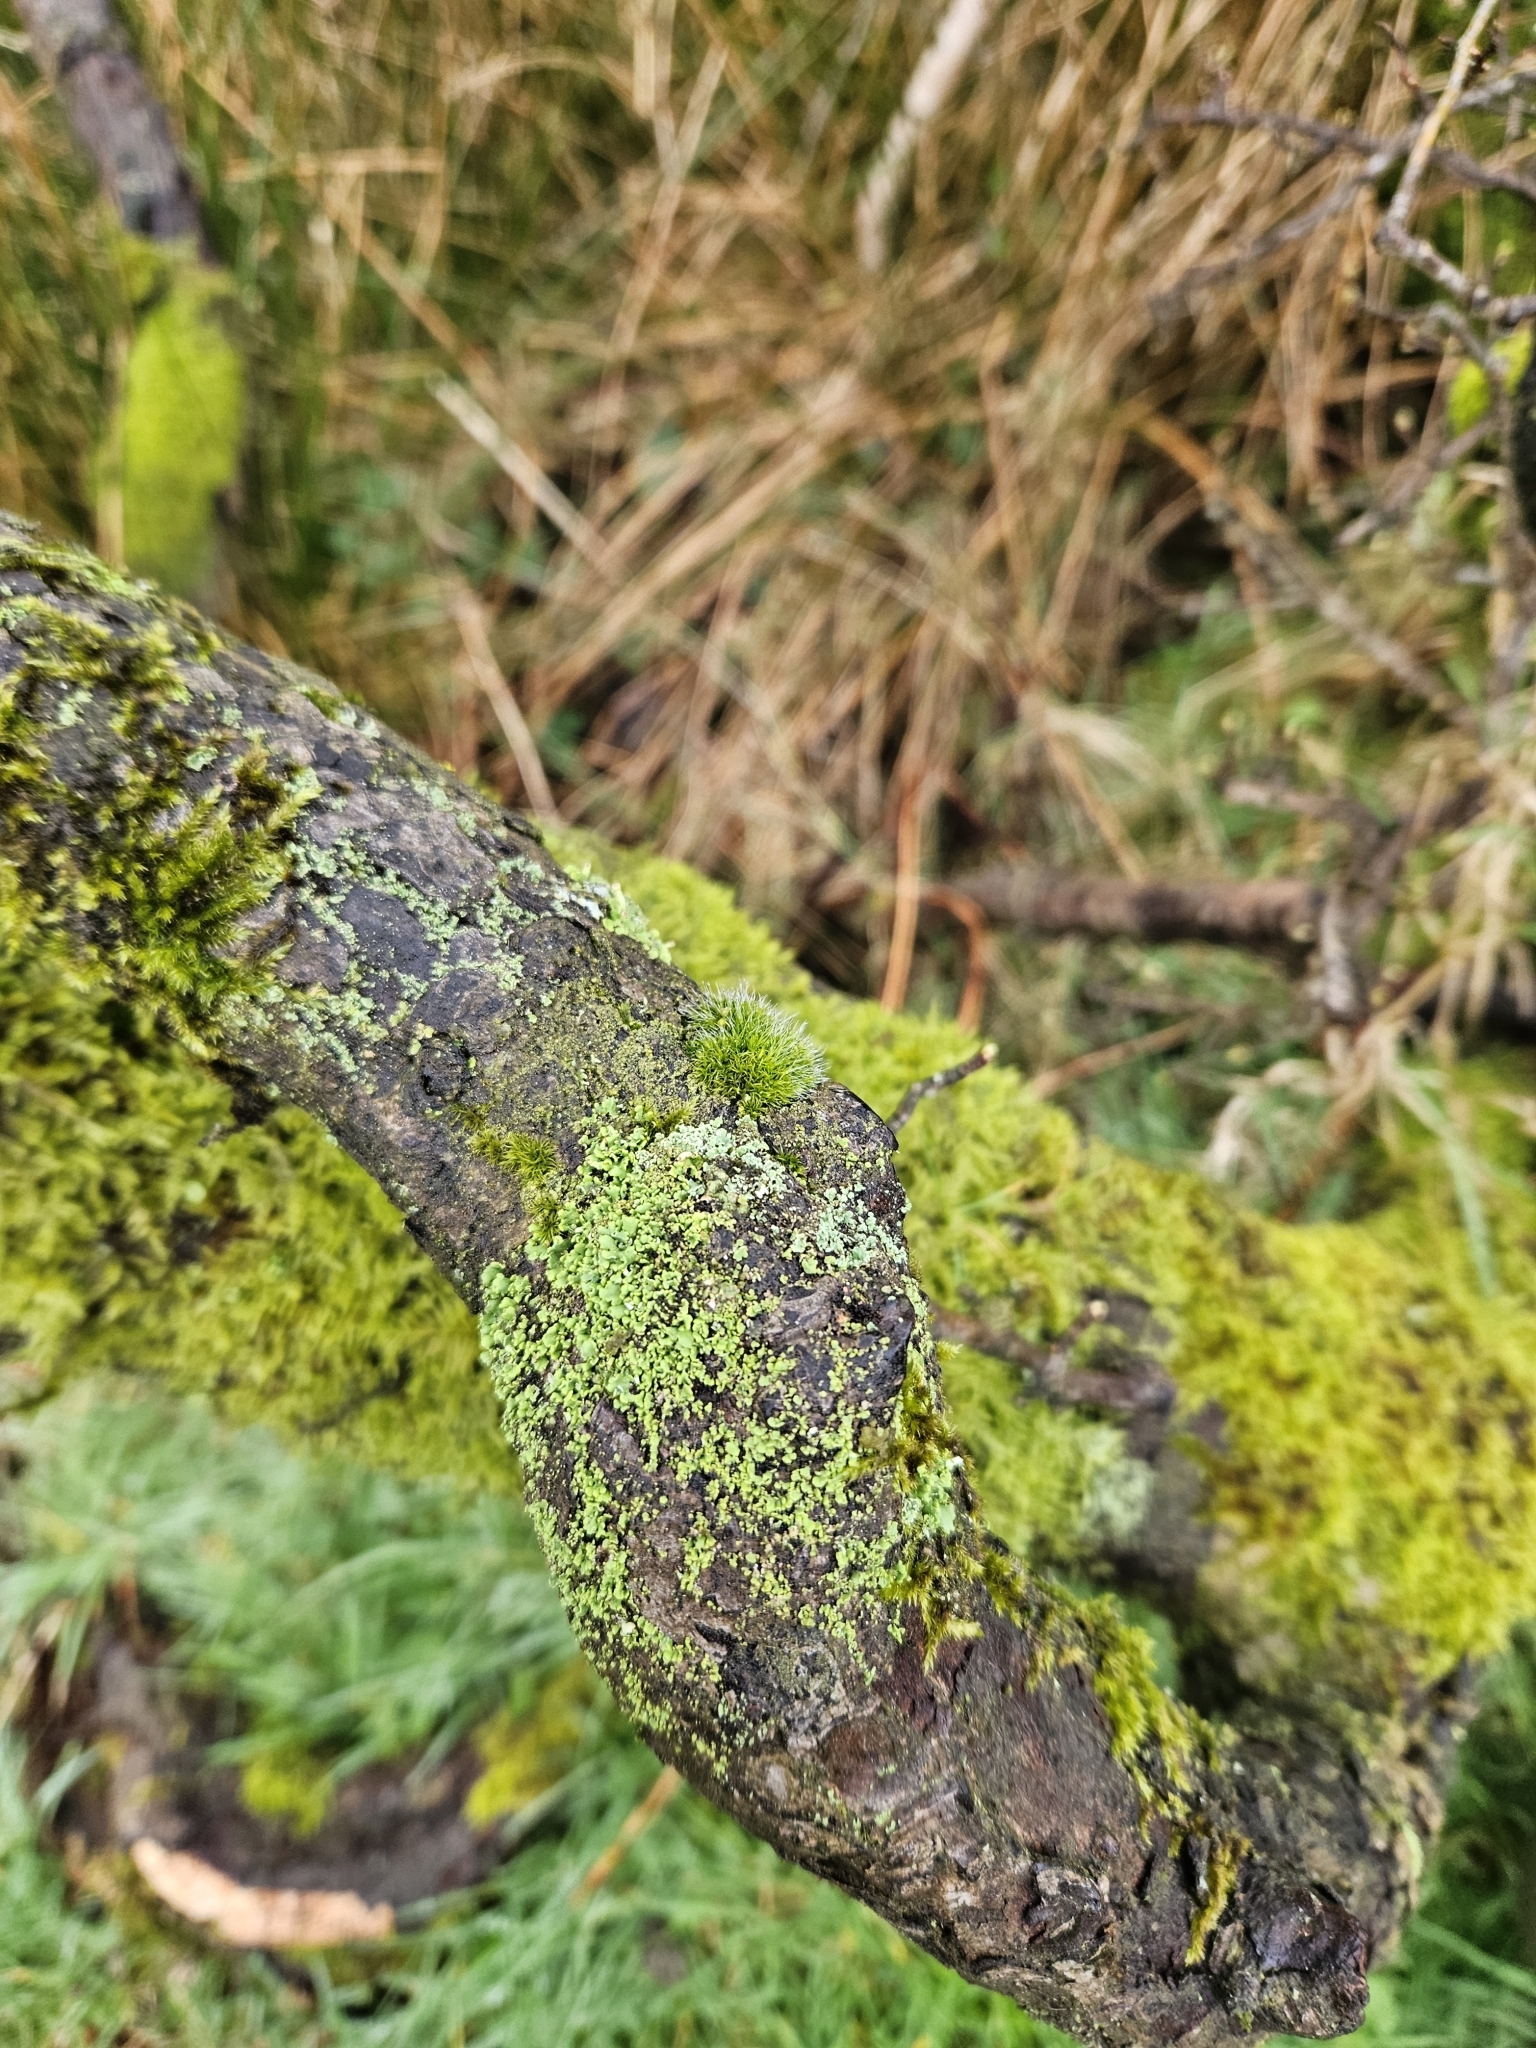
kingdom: Plantae
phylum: Bryophyta
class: Bryopsida
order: Grimmiales
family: Grimmiaceae
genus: Grimmia
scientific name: Grimmia pulvinata
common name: Grey-cushioned grimmia
